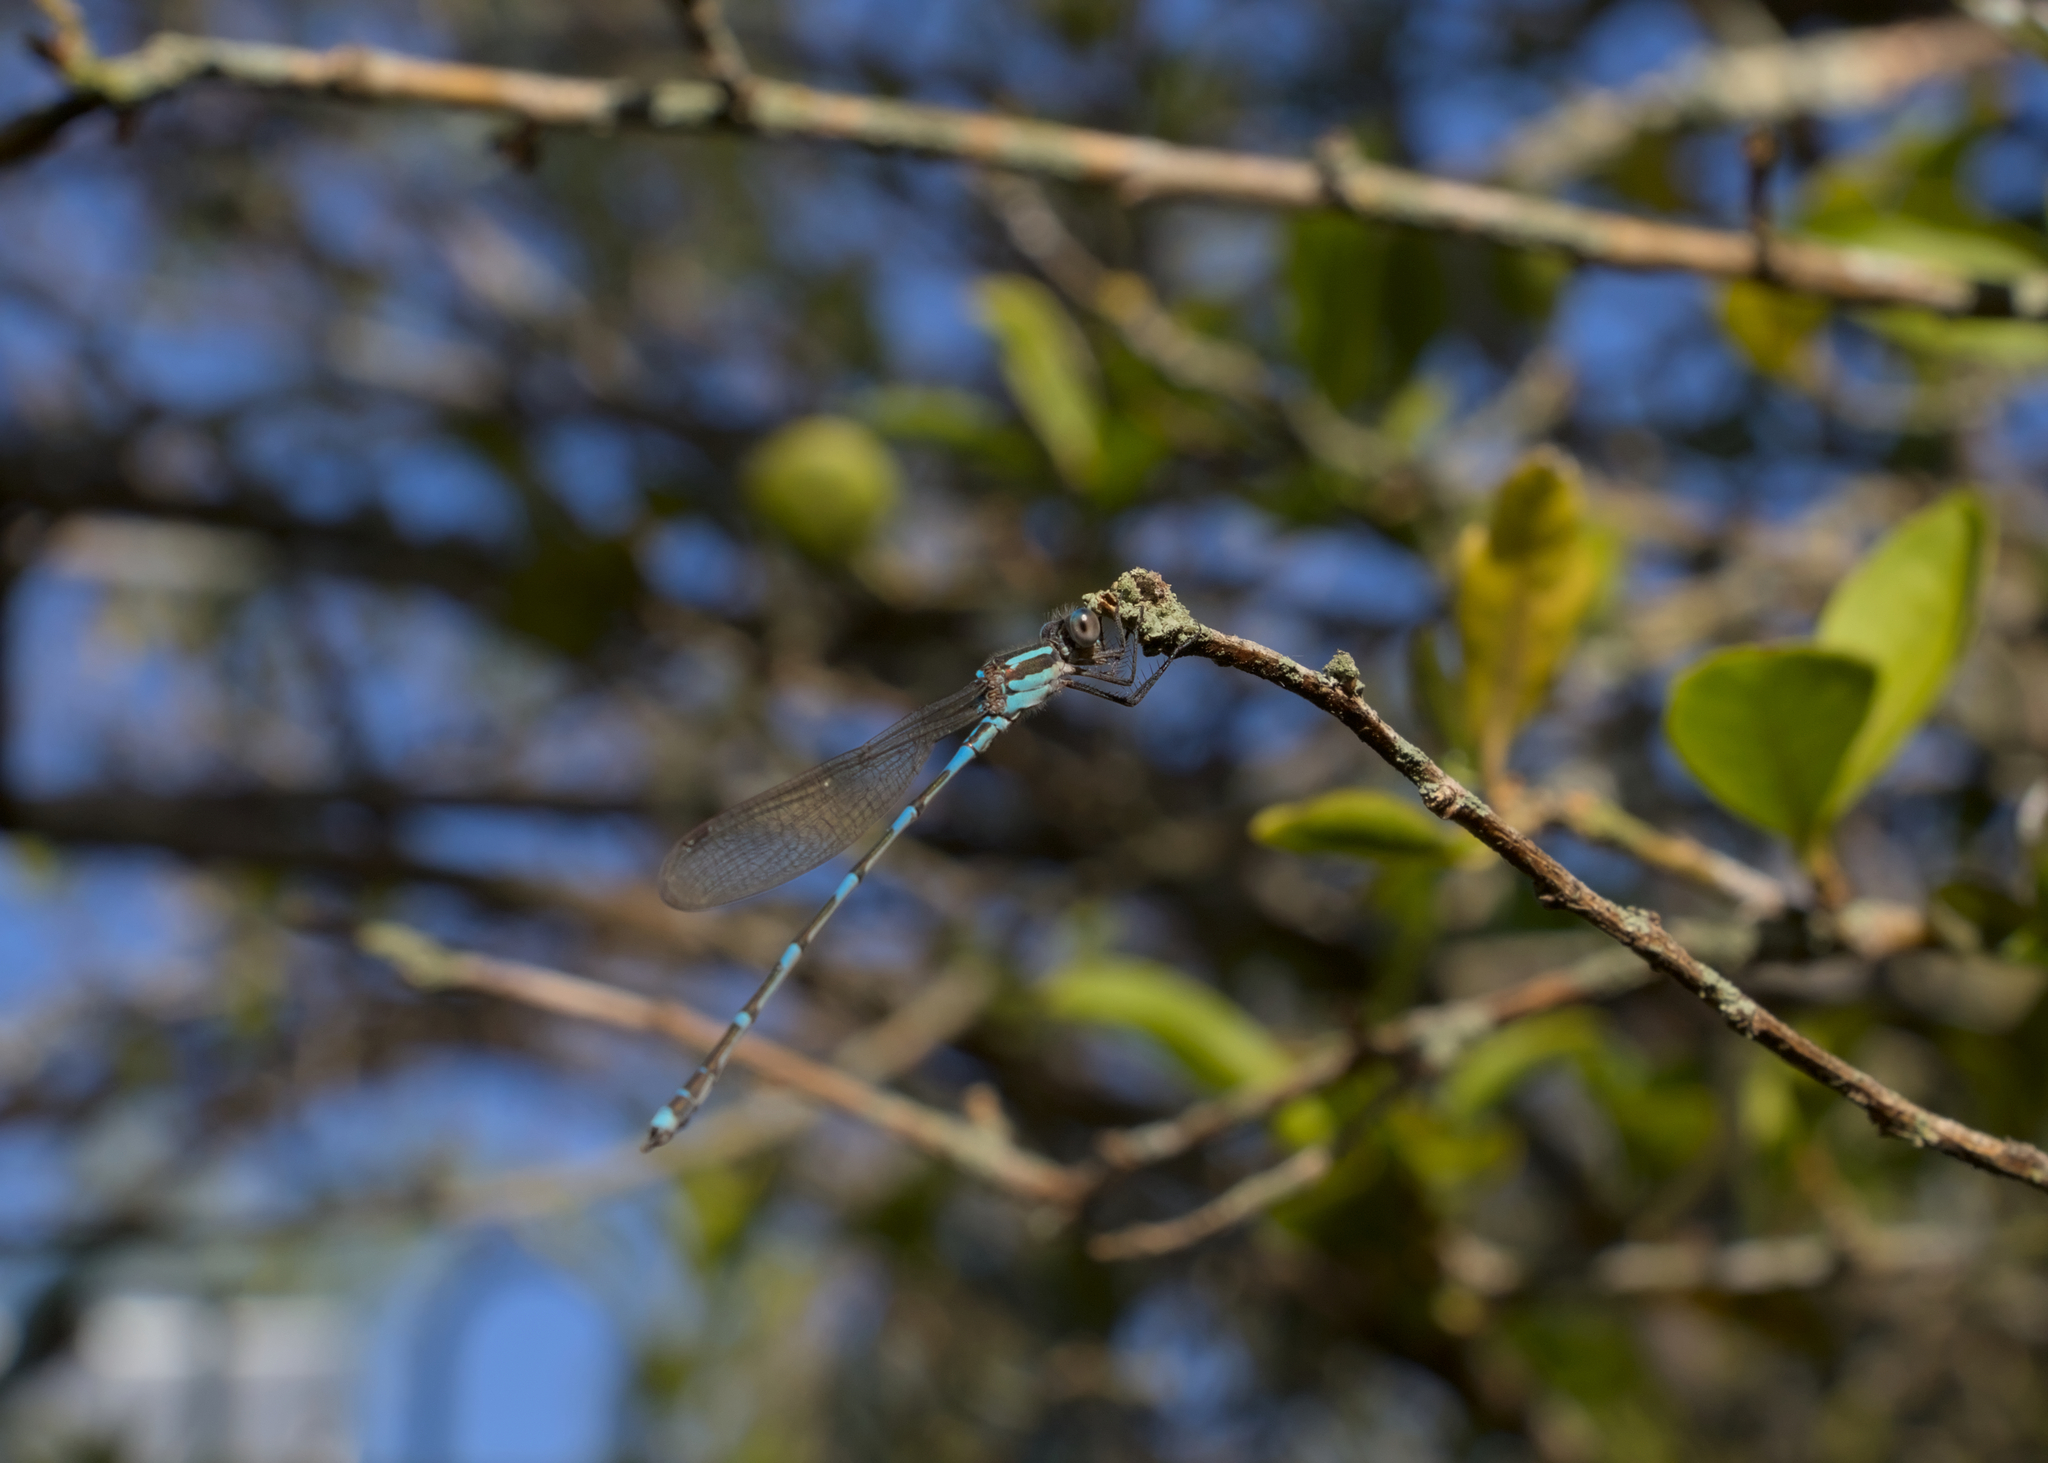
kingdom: Animalia
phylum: Arthropoda
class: Insecta
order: Odonata
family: Lestidae
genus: Austrolestes
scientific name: Austrolestes leda
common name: Wandering ringtail
